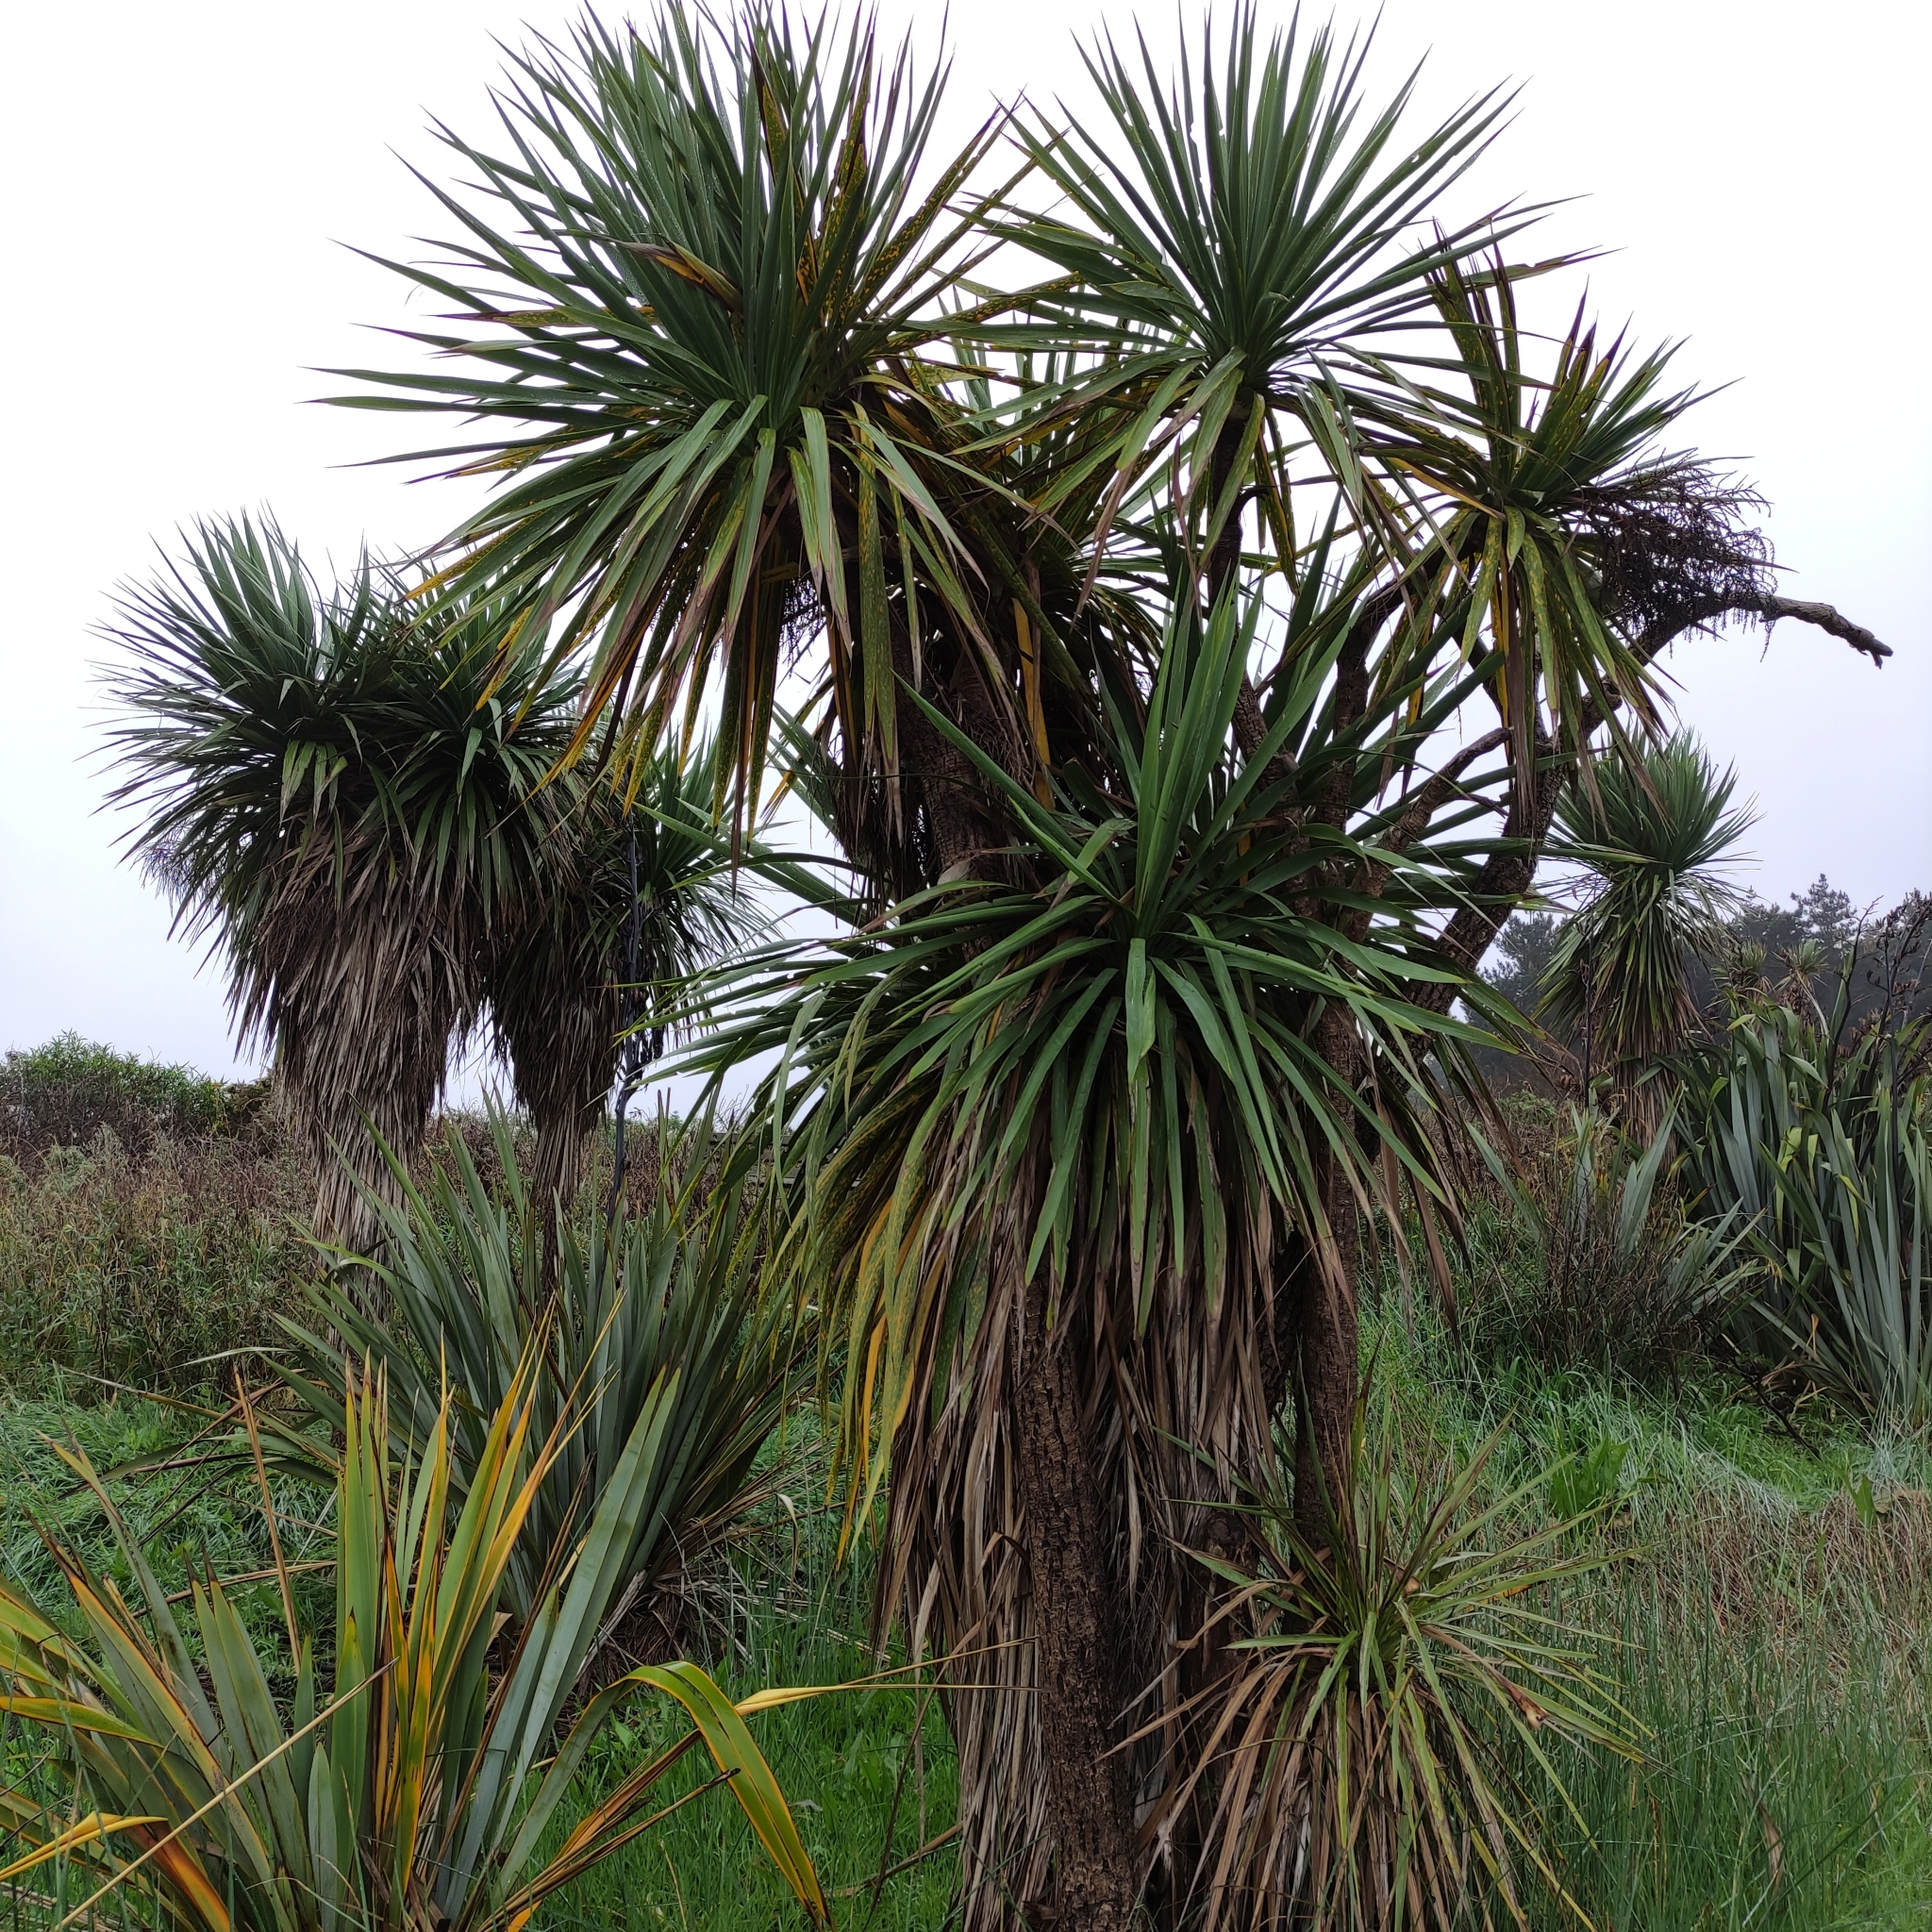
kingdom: Plantae
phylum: Tracheophyta
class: Liliopsida
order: Asparagales
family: Asparagaceae
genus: Cordyline
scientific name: Cordyline australis
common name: Cabbage-palm
